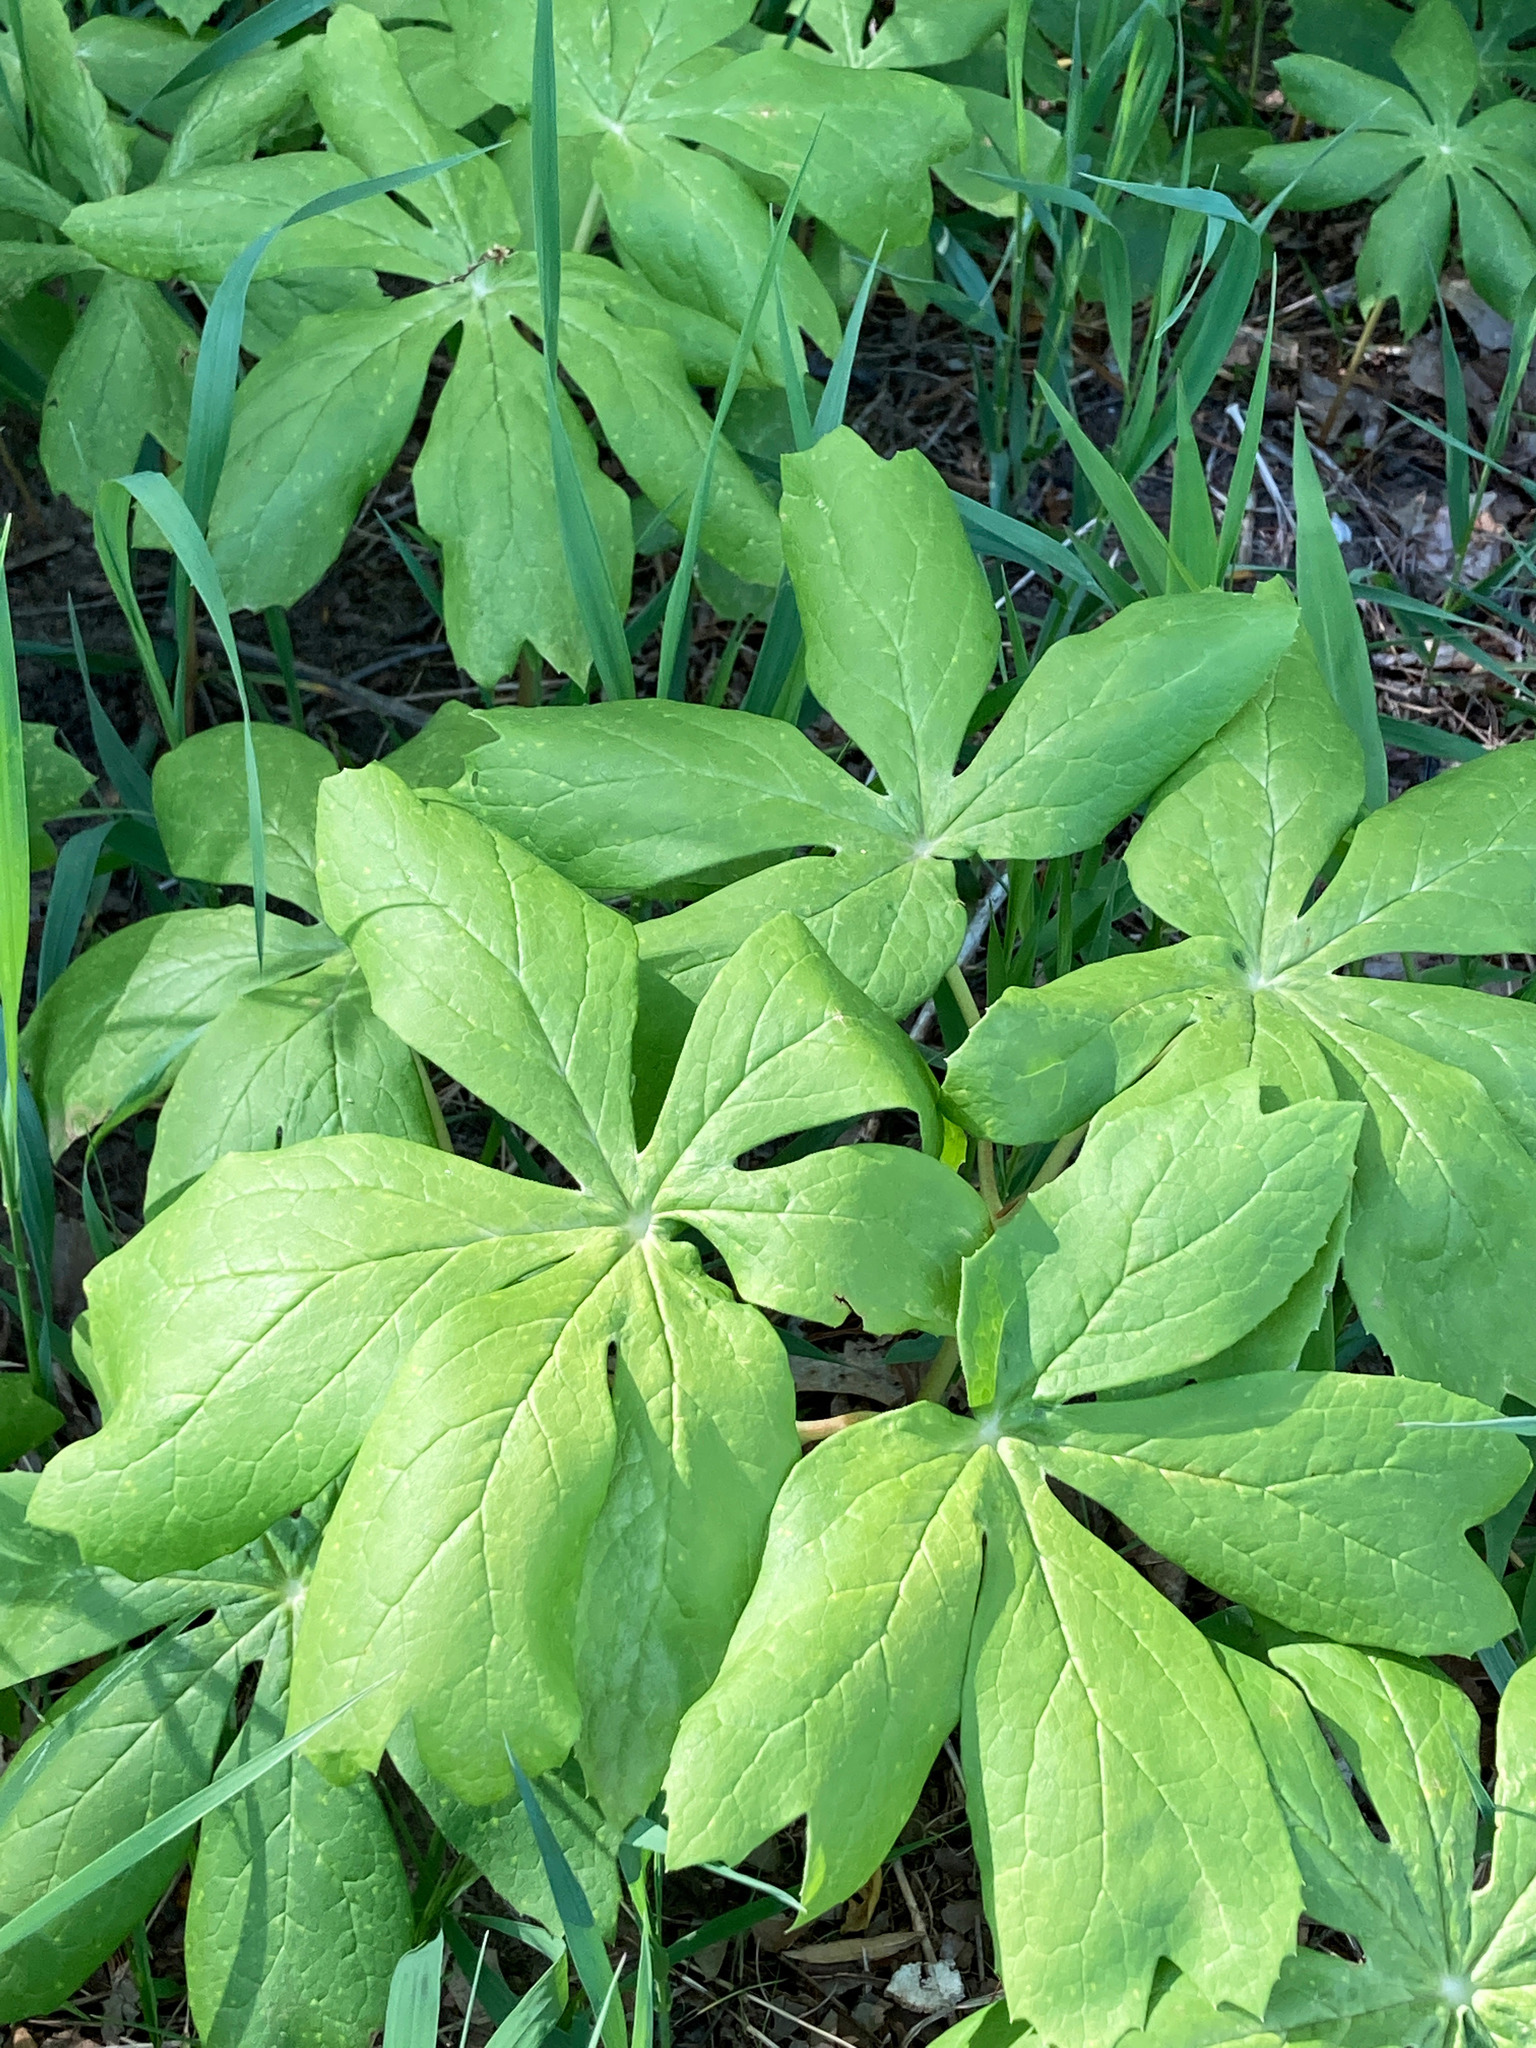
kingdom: Plantae
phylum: Tracheophyta
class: Magnoliopsida
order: Ranunculales
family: Berberidaceae
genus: Podophyllum
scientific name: Podophyllum peltatum
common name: Wild mandrake
